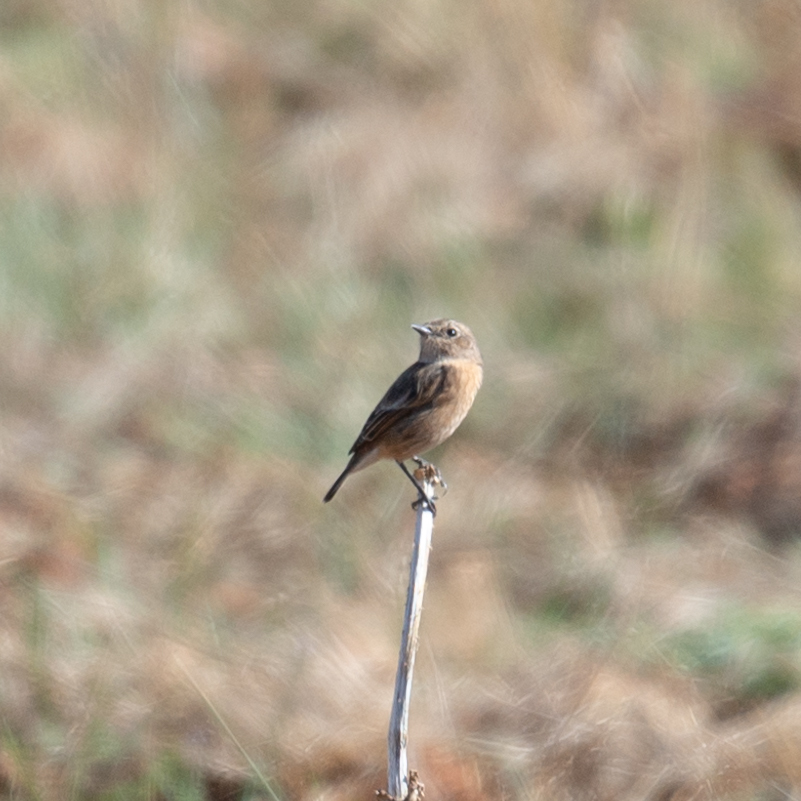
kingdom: Animalia
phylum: Chordata
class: Aves
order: Passeriformes
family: Muscicapidae
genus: Saxicola
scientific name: Saxicola rubicola
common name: European stonechat
